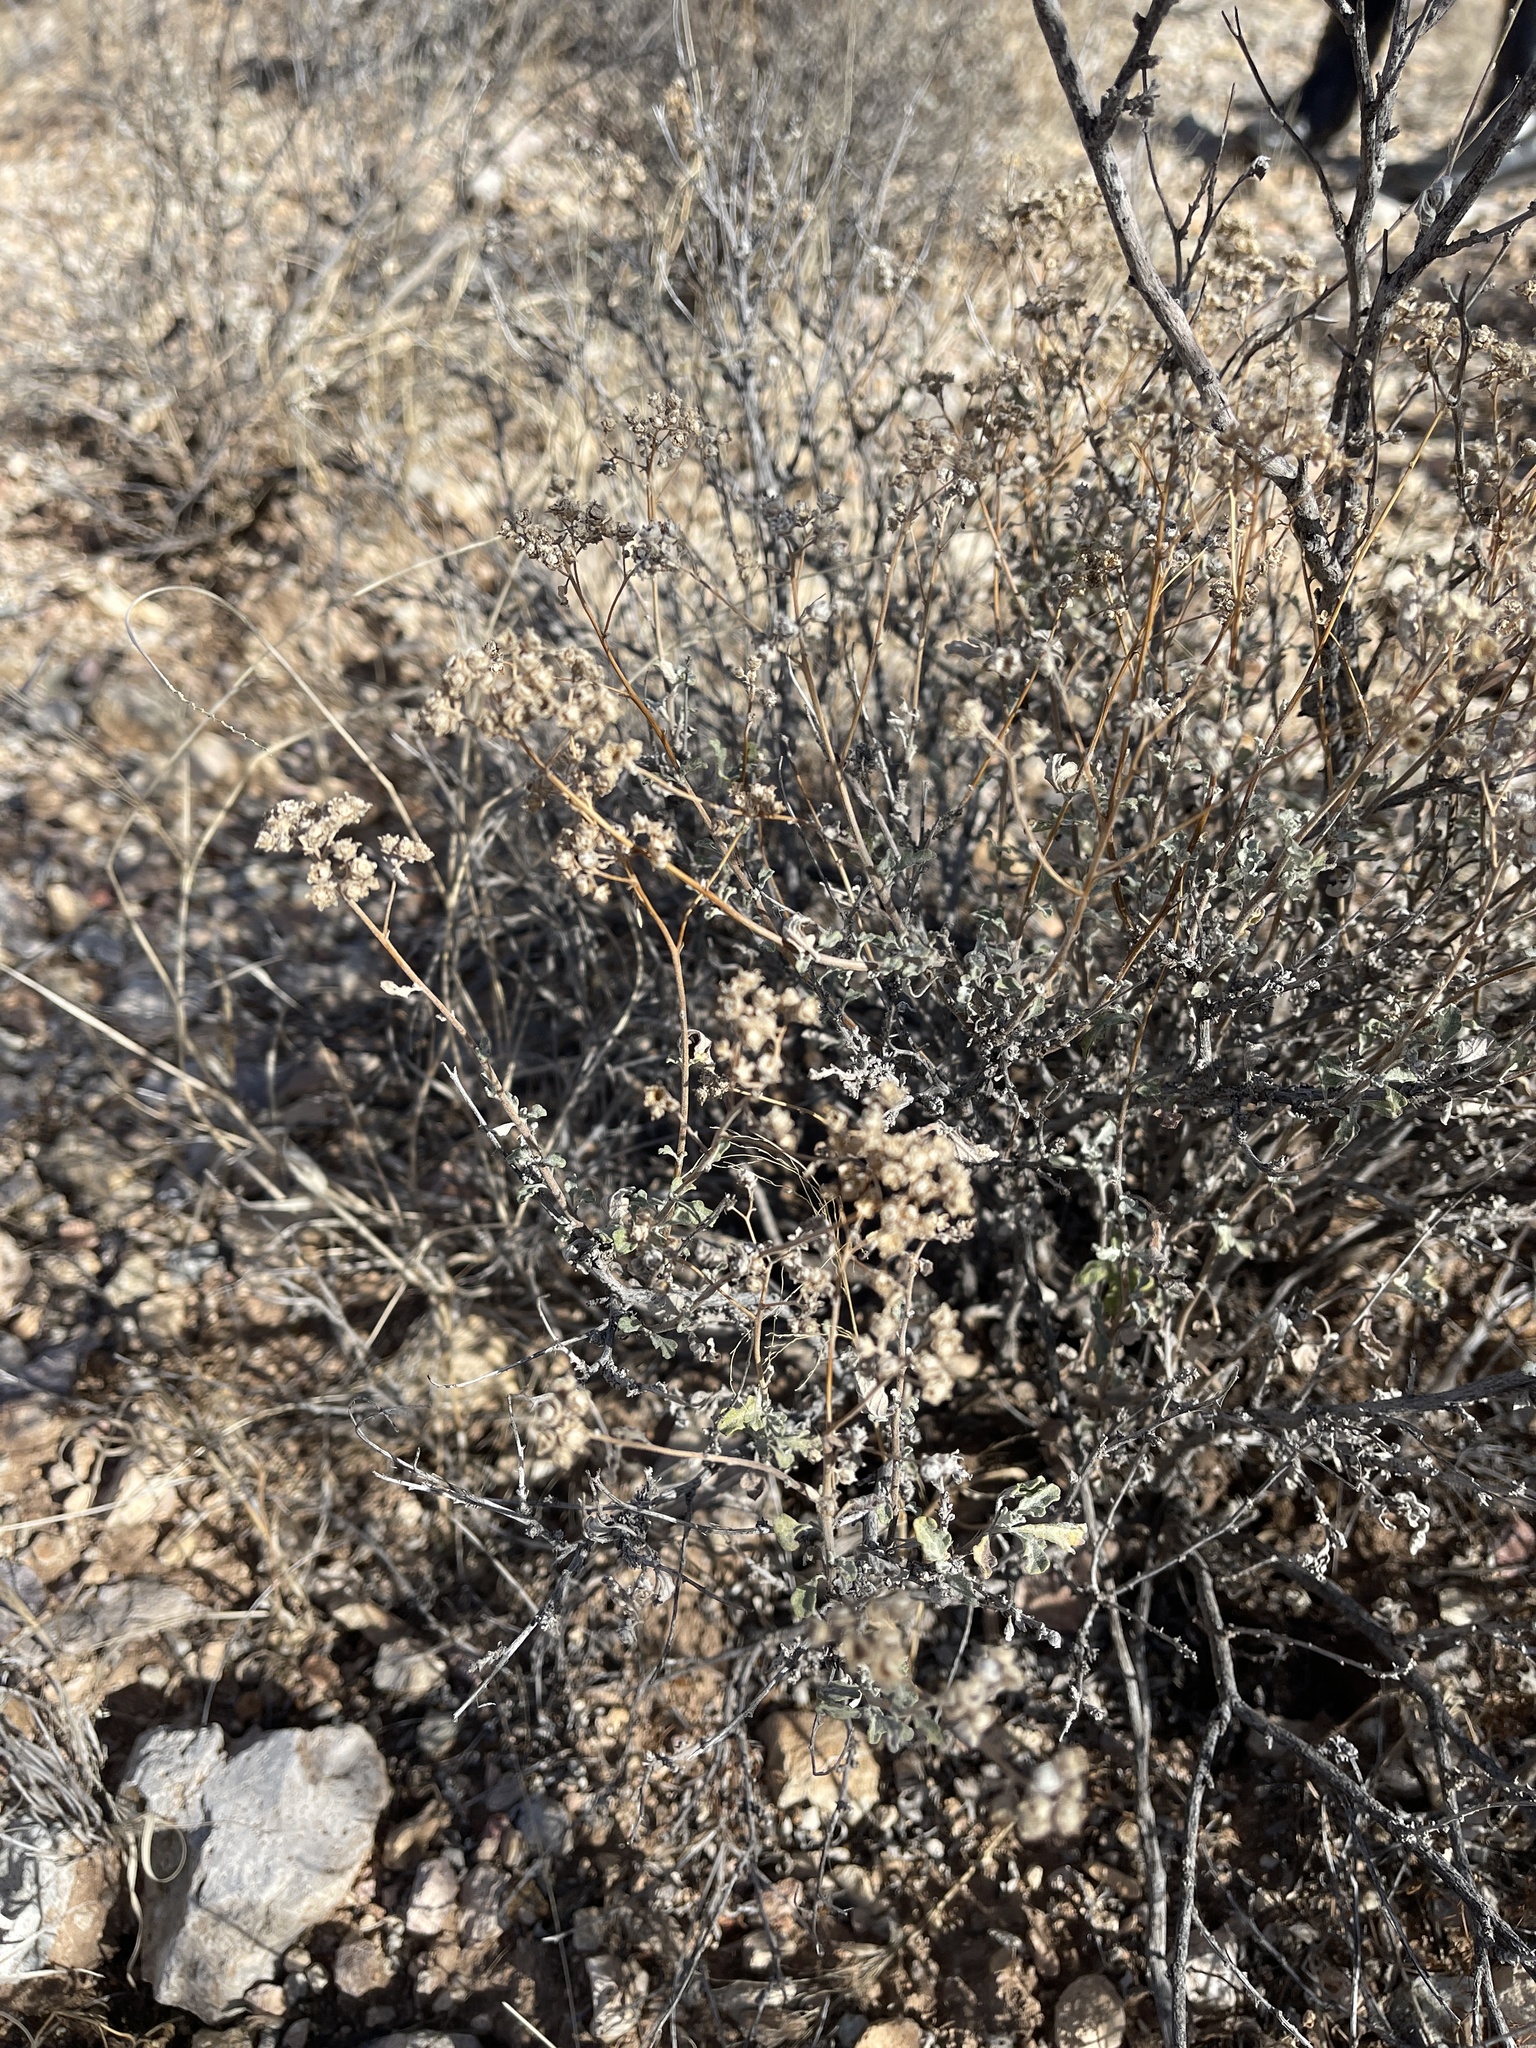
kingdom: Plantae
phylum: Tracheophyta
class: Magnoliopsida
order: Asterales
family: Asteraceae
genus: Parthenium
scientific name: Parthenium incanum
